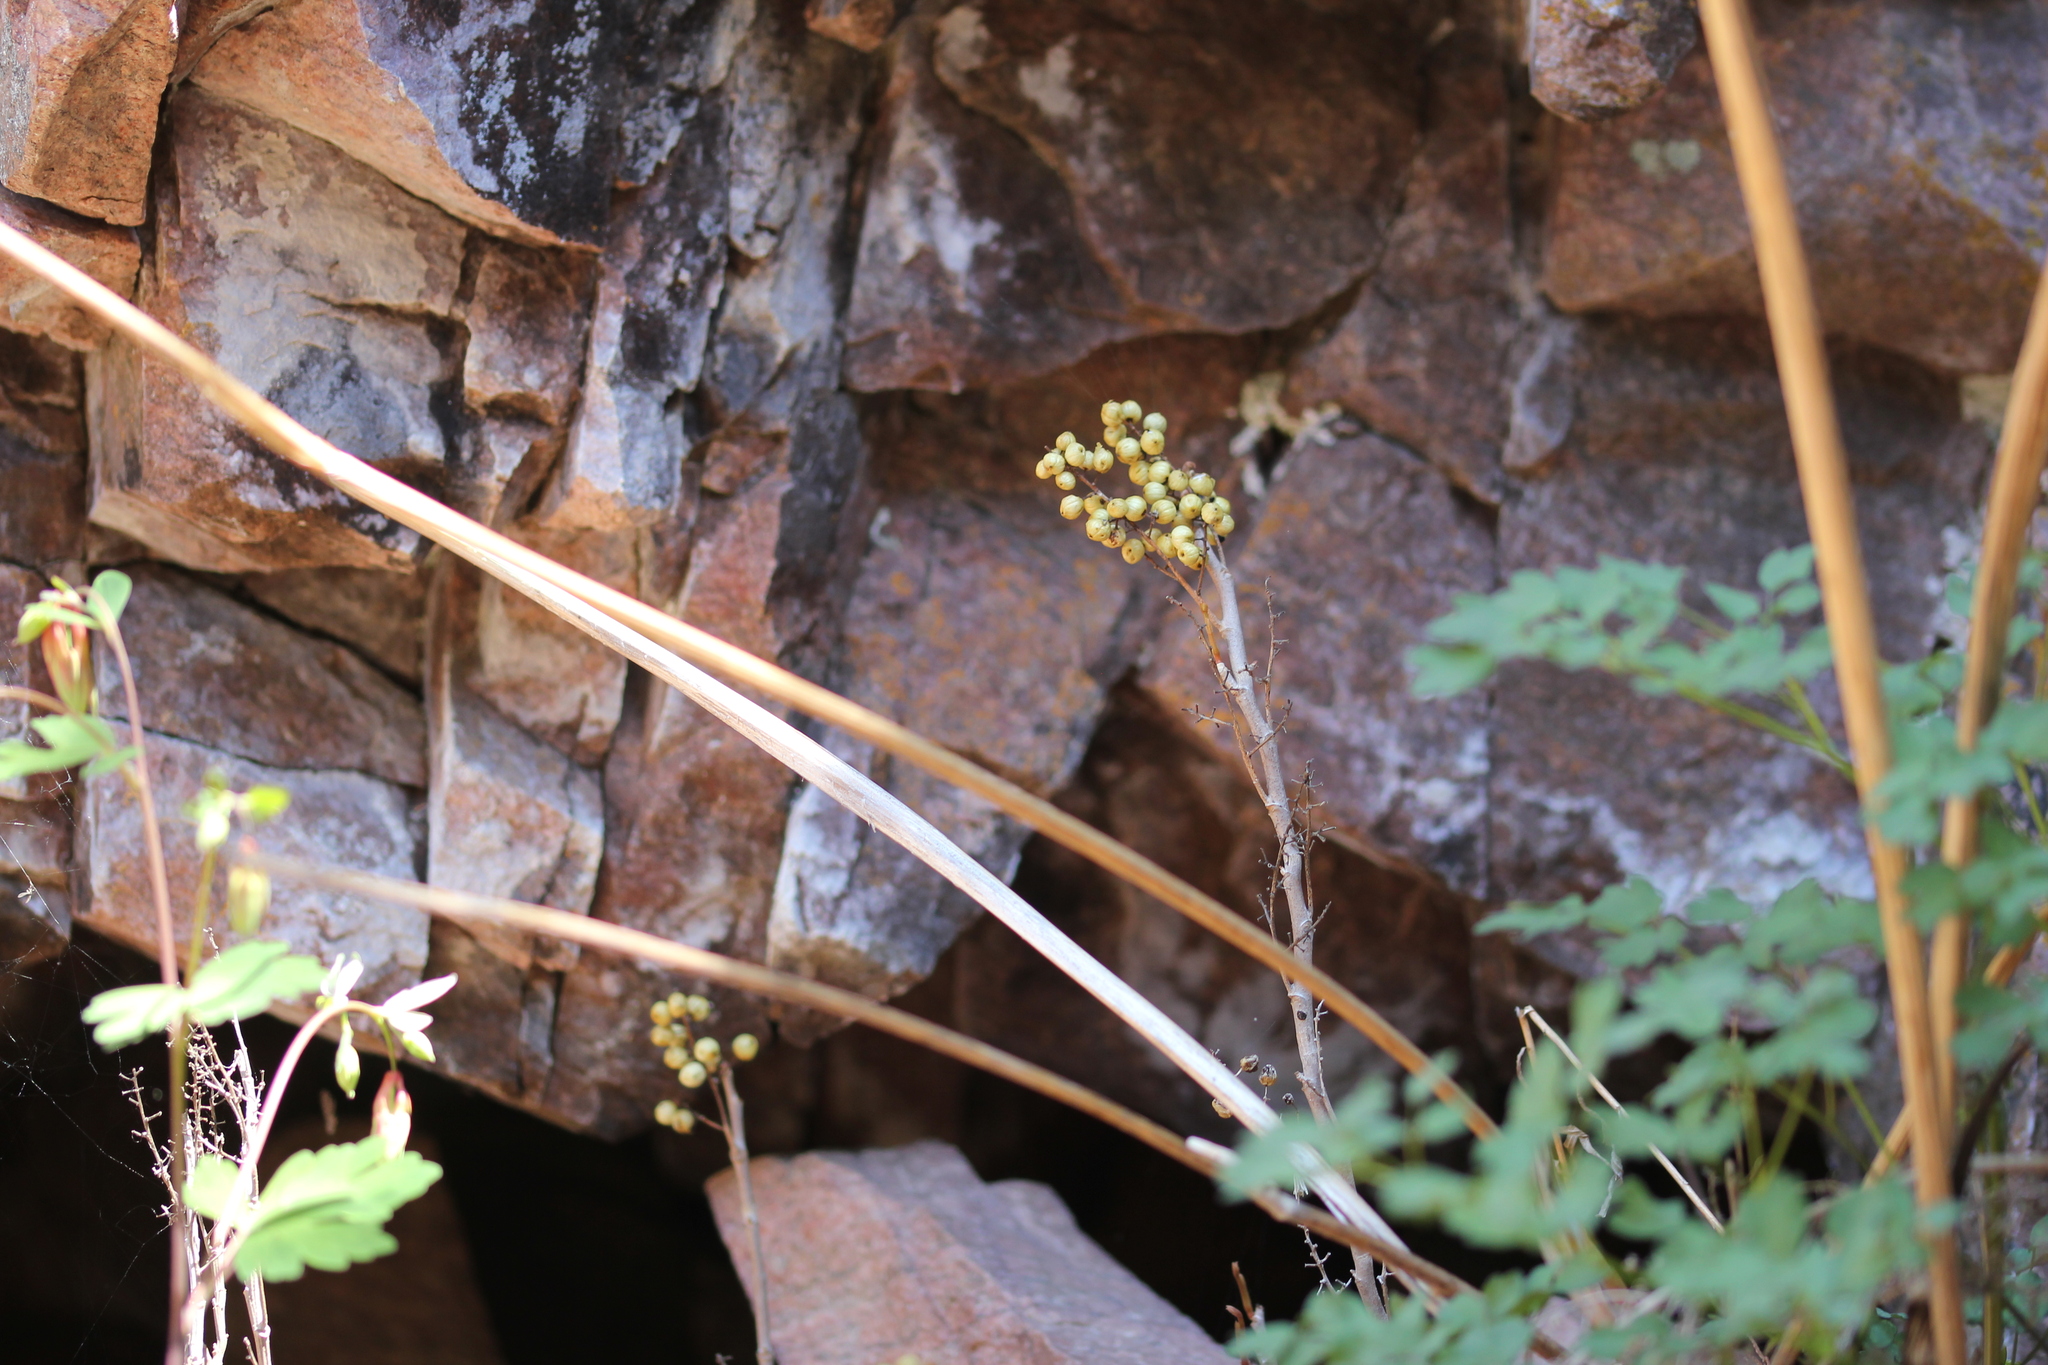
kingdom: Plantae
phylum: Tracheophyta
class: Magnoliopsida
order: Sapindales
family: Anacardiaceae
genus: Toxicodendron
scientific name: Toxicodendron rydbergii
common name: Rydberg's poison-ivy
